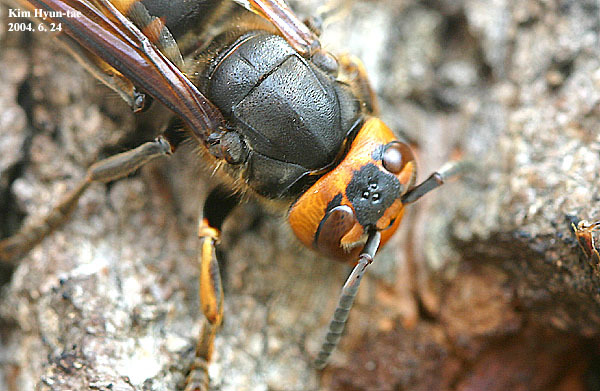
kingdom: Animalia
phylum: Arthropoda
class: Insecta
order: Hymenoptera
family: Vespidae
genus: Vespa
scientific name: Vespa mandarinia
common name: Asian giant hornet
